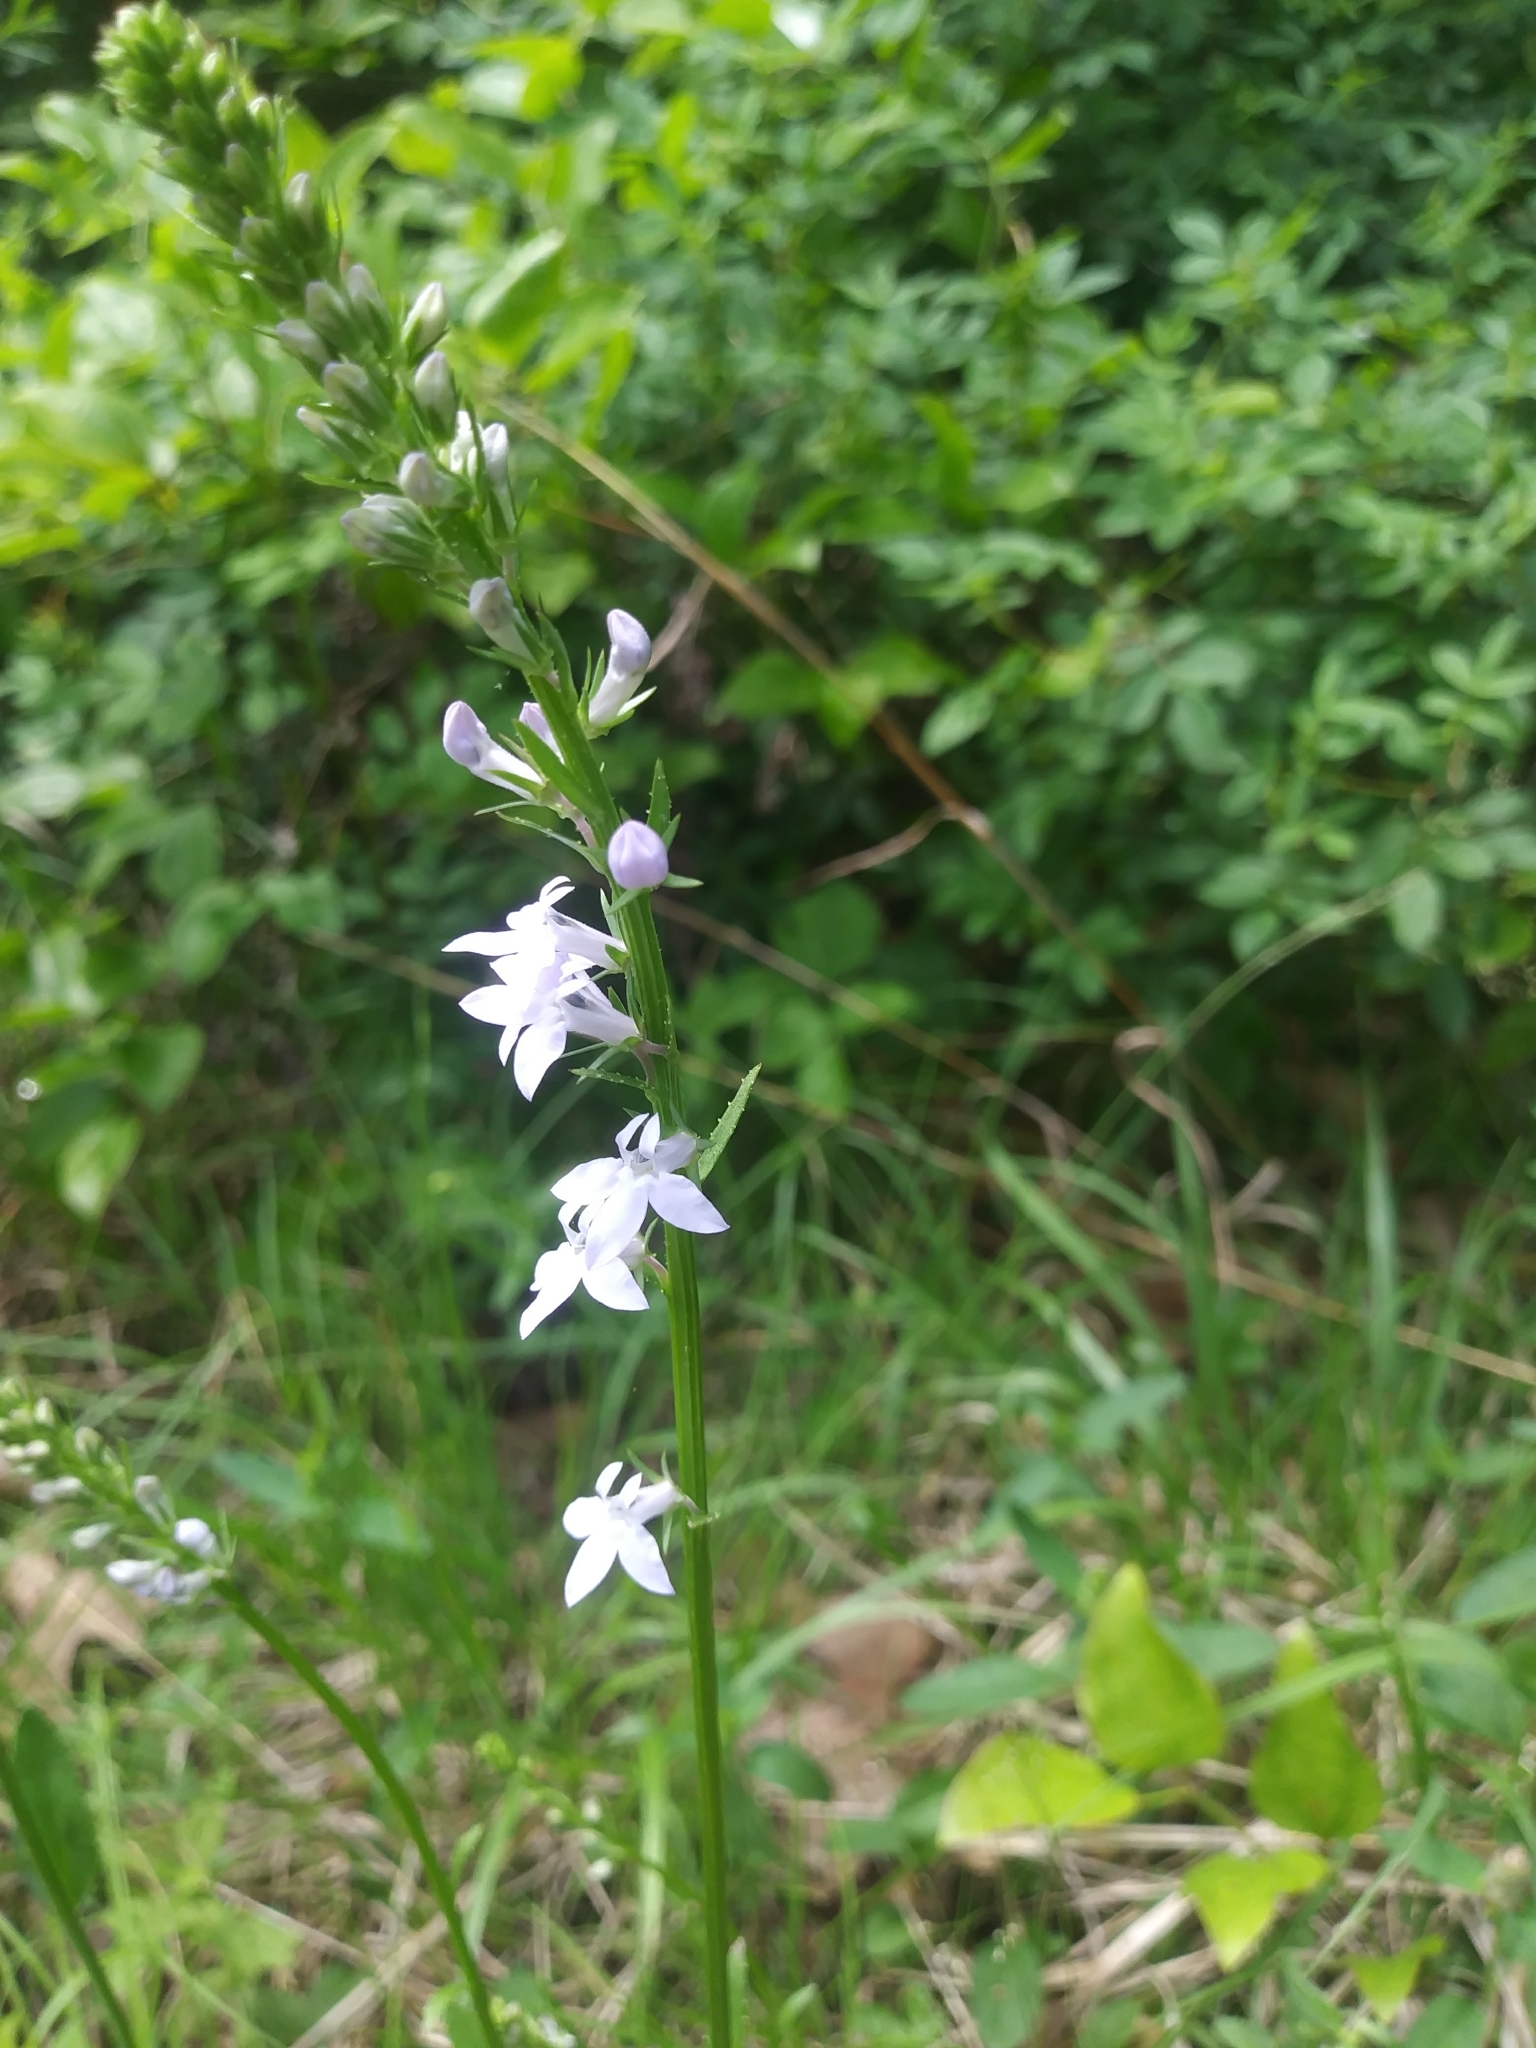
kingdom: Plantae
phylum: Tracheophyta
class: Magnoliopsida
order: Asterales
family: Campanulaceae
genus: Lobelia
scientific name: Lobelia spicata
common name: Pale-spike lobelia
